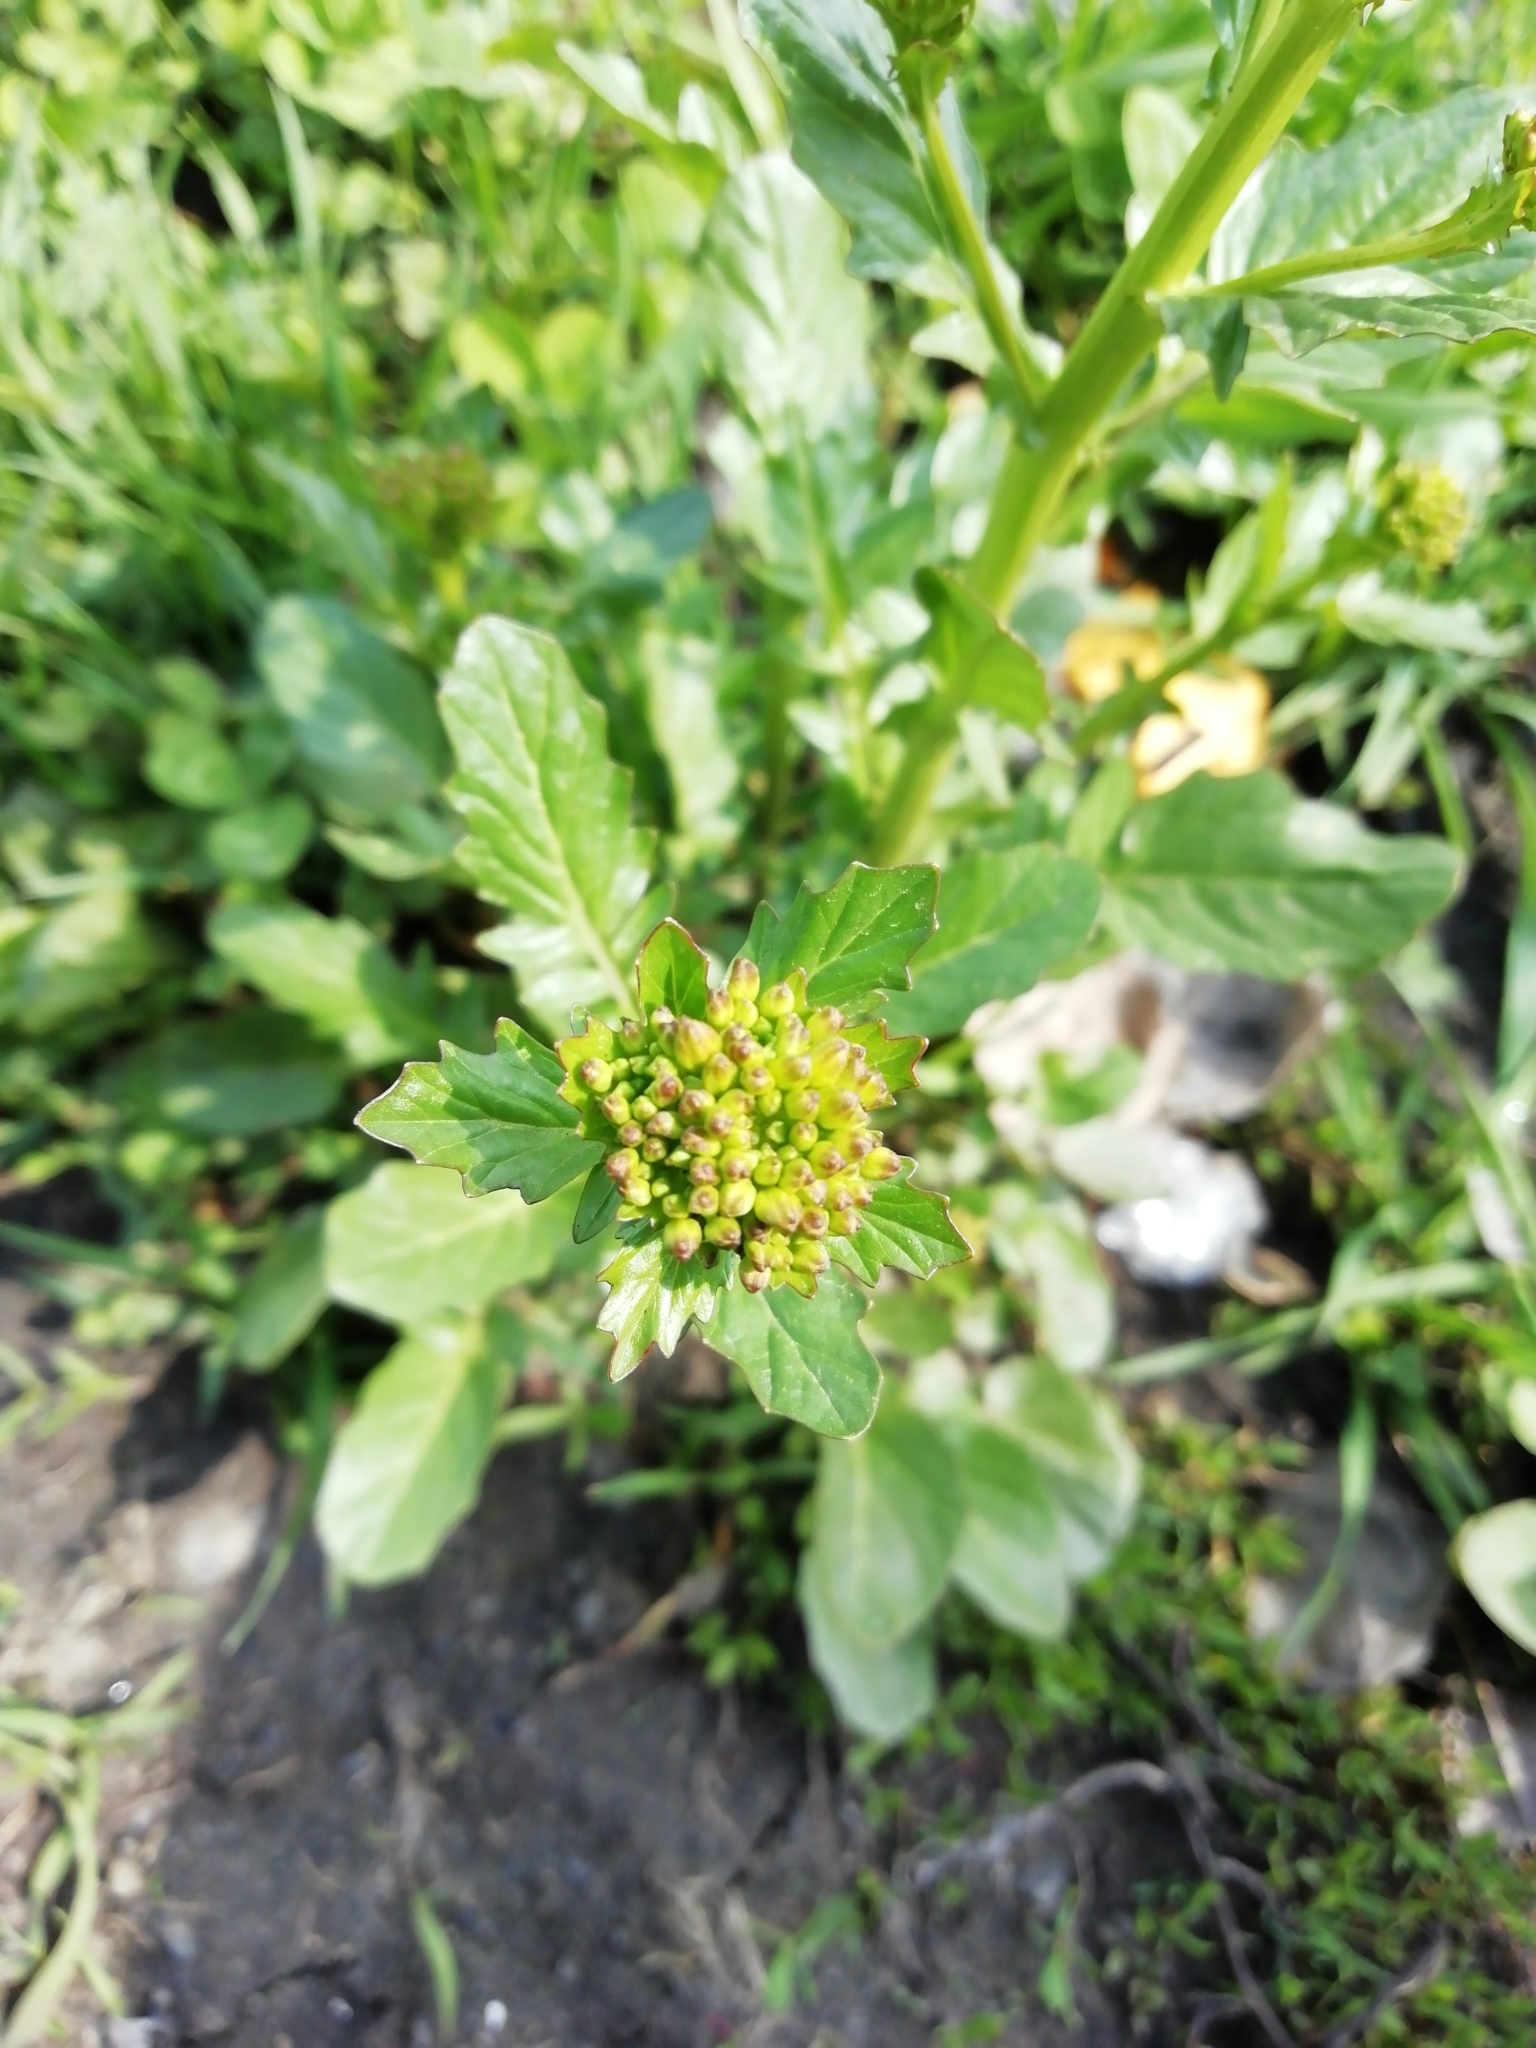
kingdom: Plantae
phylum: Tracheophyta
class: Magnoliopsida
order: Brassicales
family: Brassicaceae
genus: Barbarea
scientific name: Barbarea vulgaris
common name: Cressy-greens
